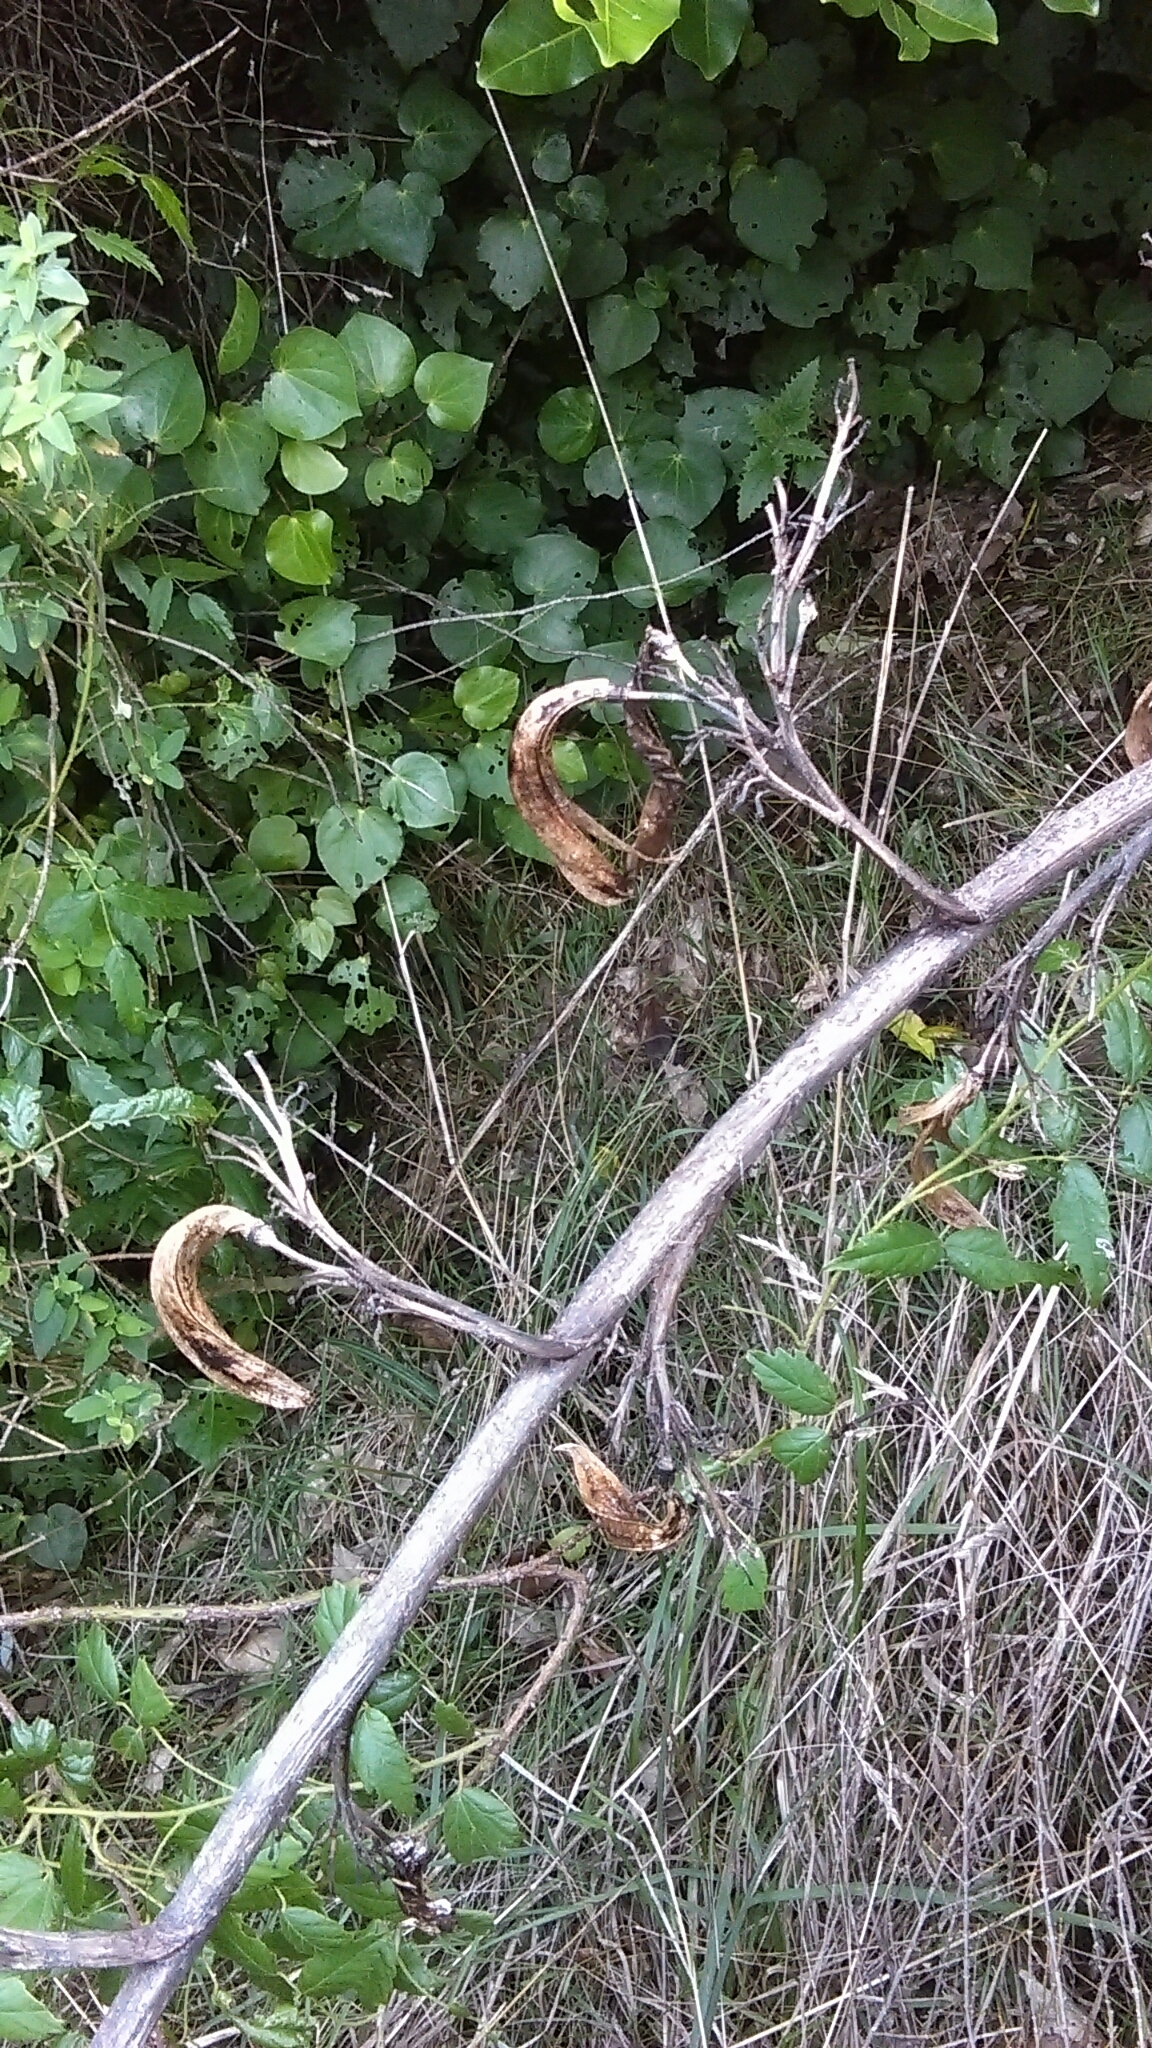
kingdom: Plantae
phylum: Tracheophyta
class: Liliopsida
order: Asparagales
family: Asphodelaceae
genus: Phormium
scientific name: Phormium colensoi
